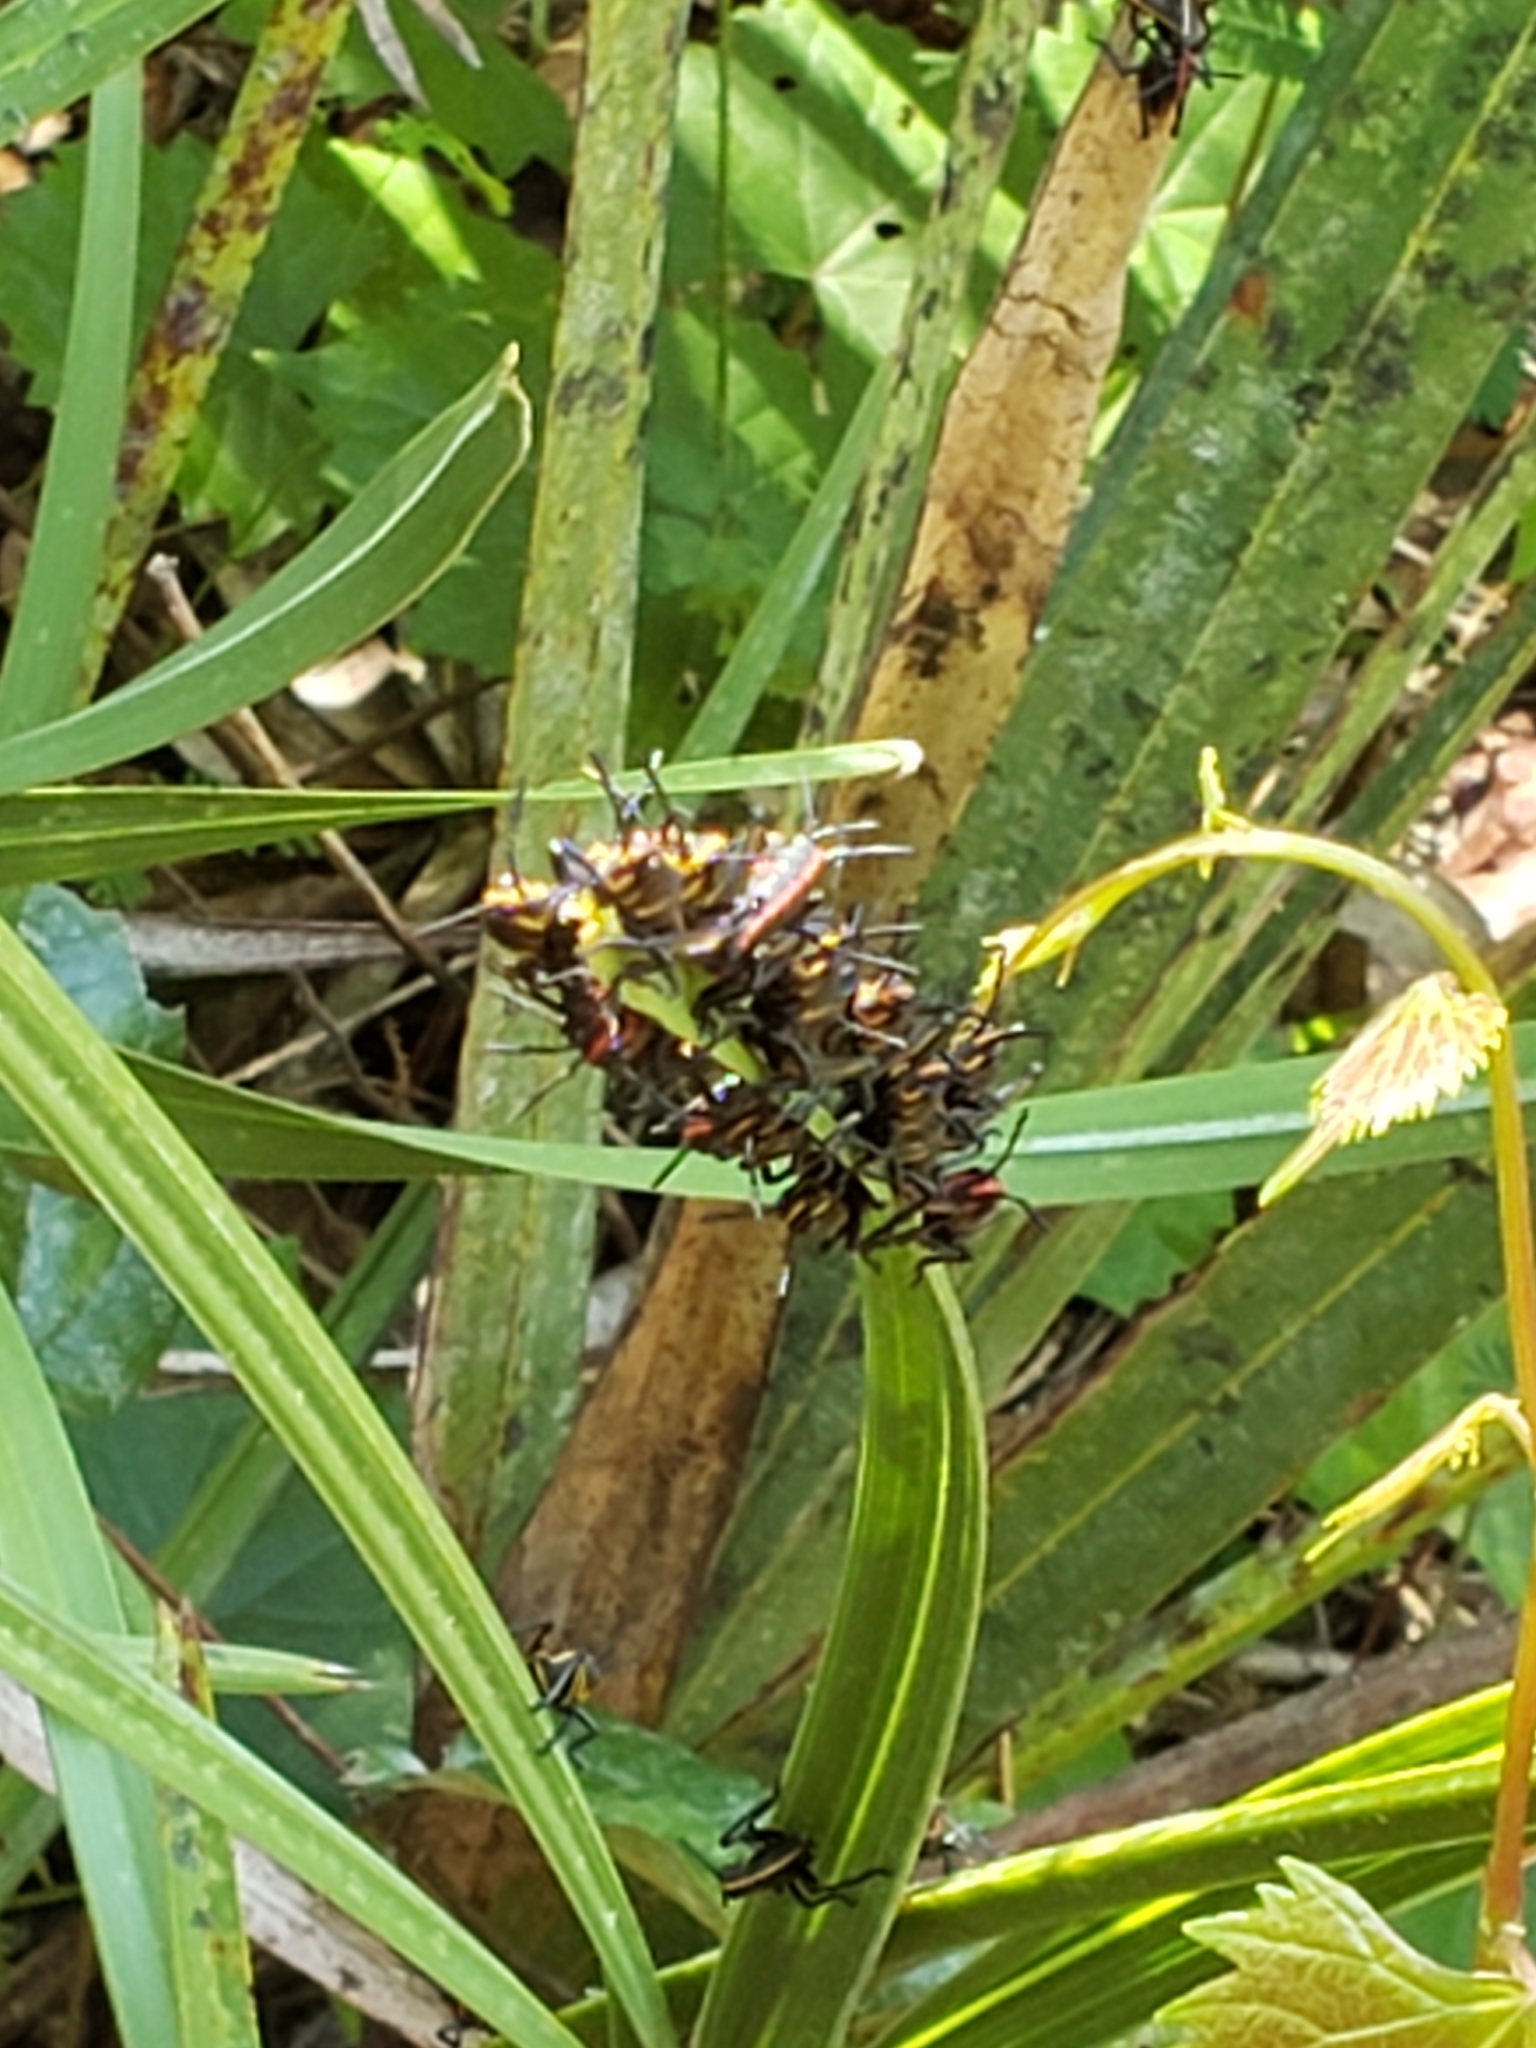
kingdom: Animalia
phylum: Arthropoda
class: Insecta
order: Orthoptera
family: Romaleidae
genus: Romalea
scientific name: Romalea microptera
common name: Eastern lubber grasshopper
